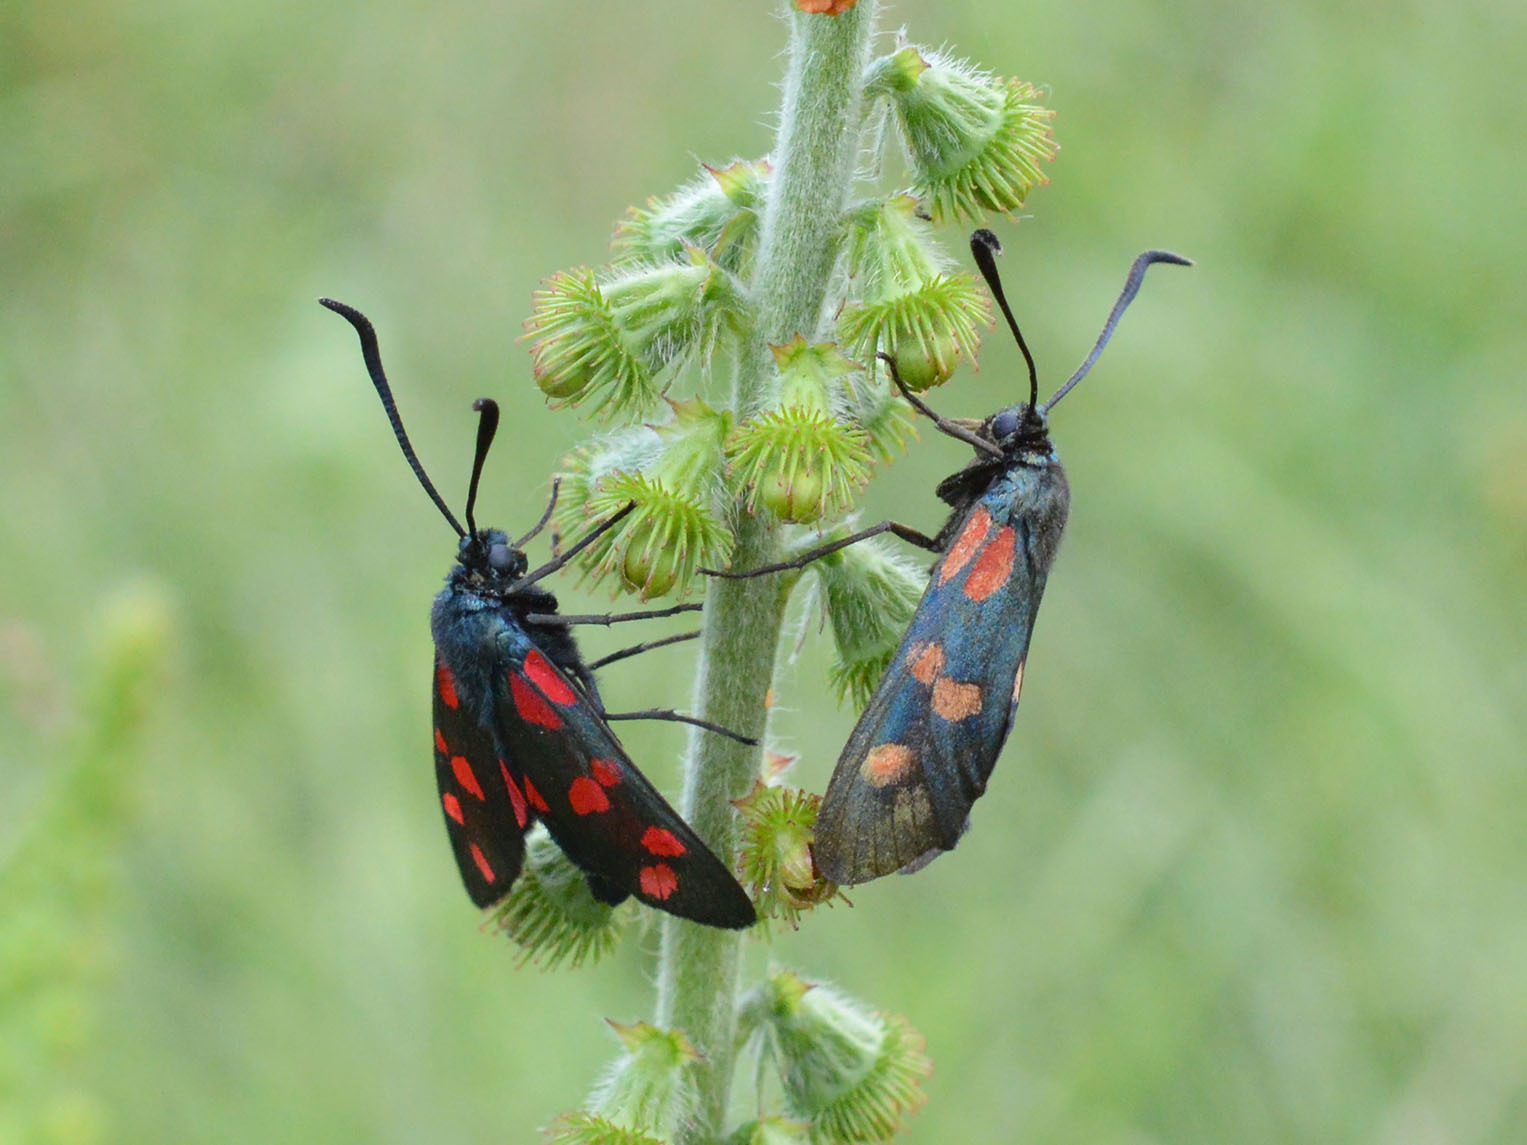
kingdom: Animalia
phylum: Arthropoda
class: Insecta
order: Lepidoptera
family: Zygaenidae
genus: Zygaena
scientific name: Zygaena filipendulae
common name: Six-spot burnet
